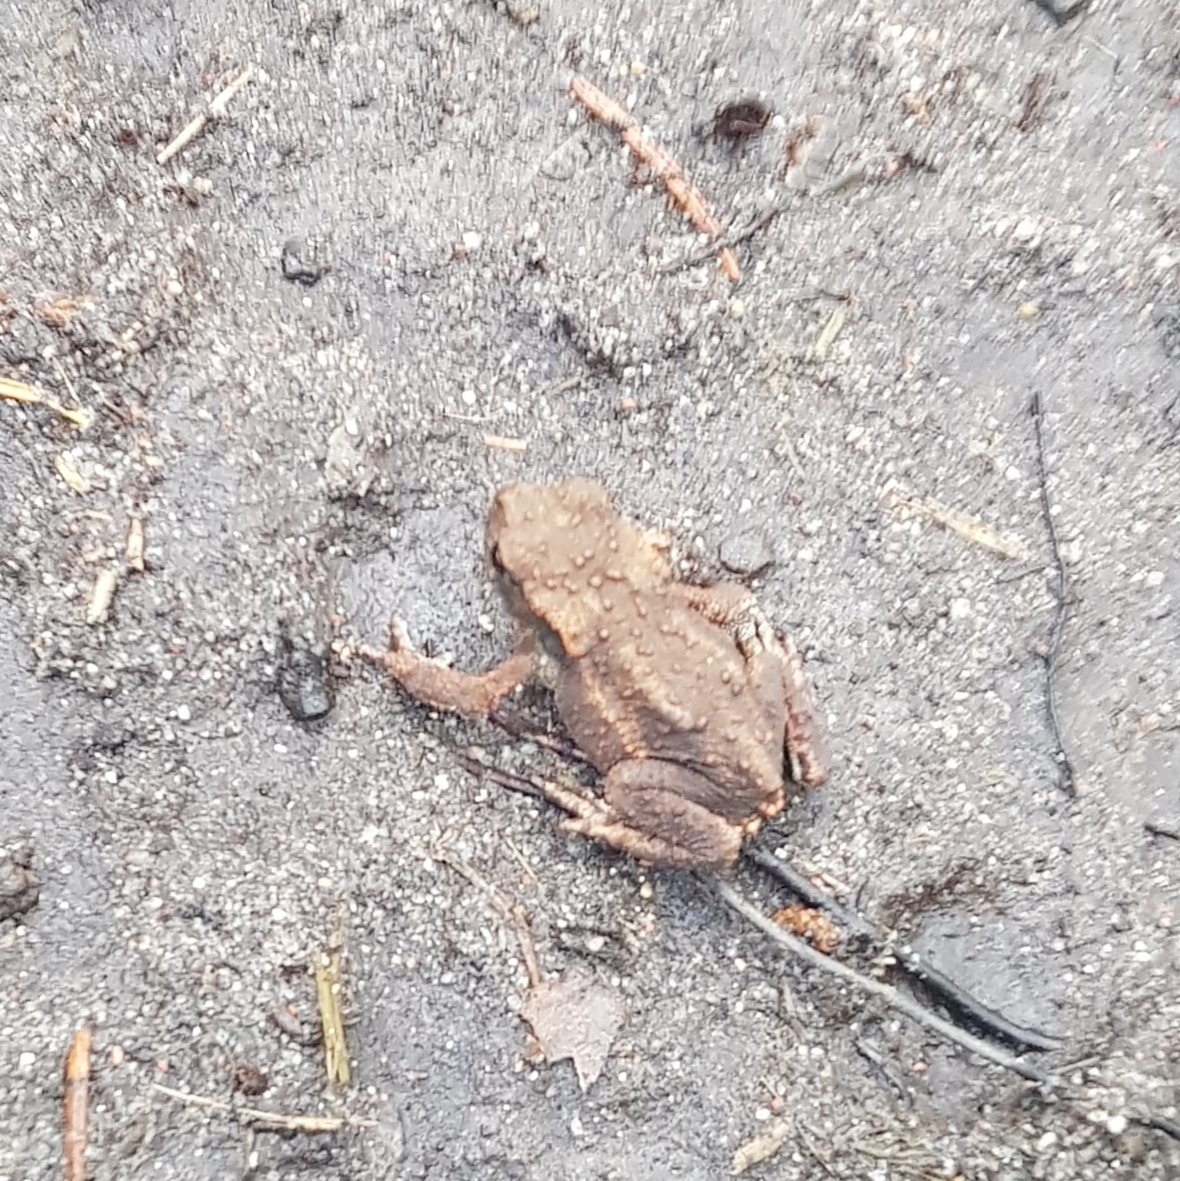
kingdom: Animalia
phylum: Chordata
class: Amphibia
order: Anura
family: Bufonidae
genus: Bufo
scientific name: Bufo bufo
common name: Common toad
